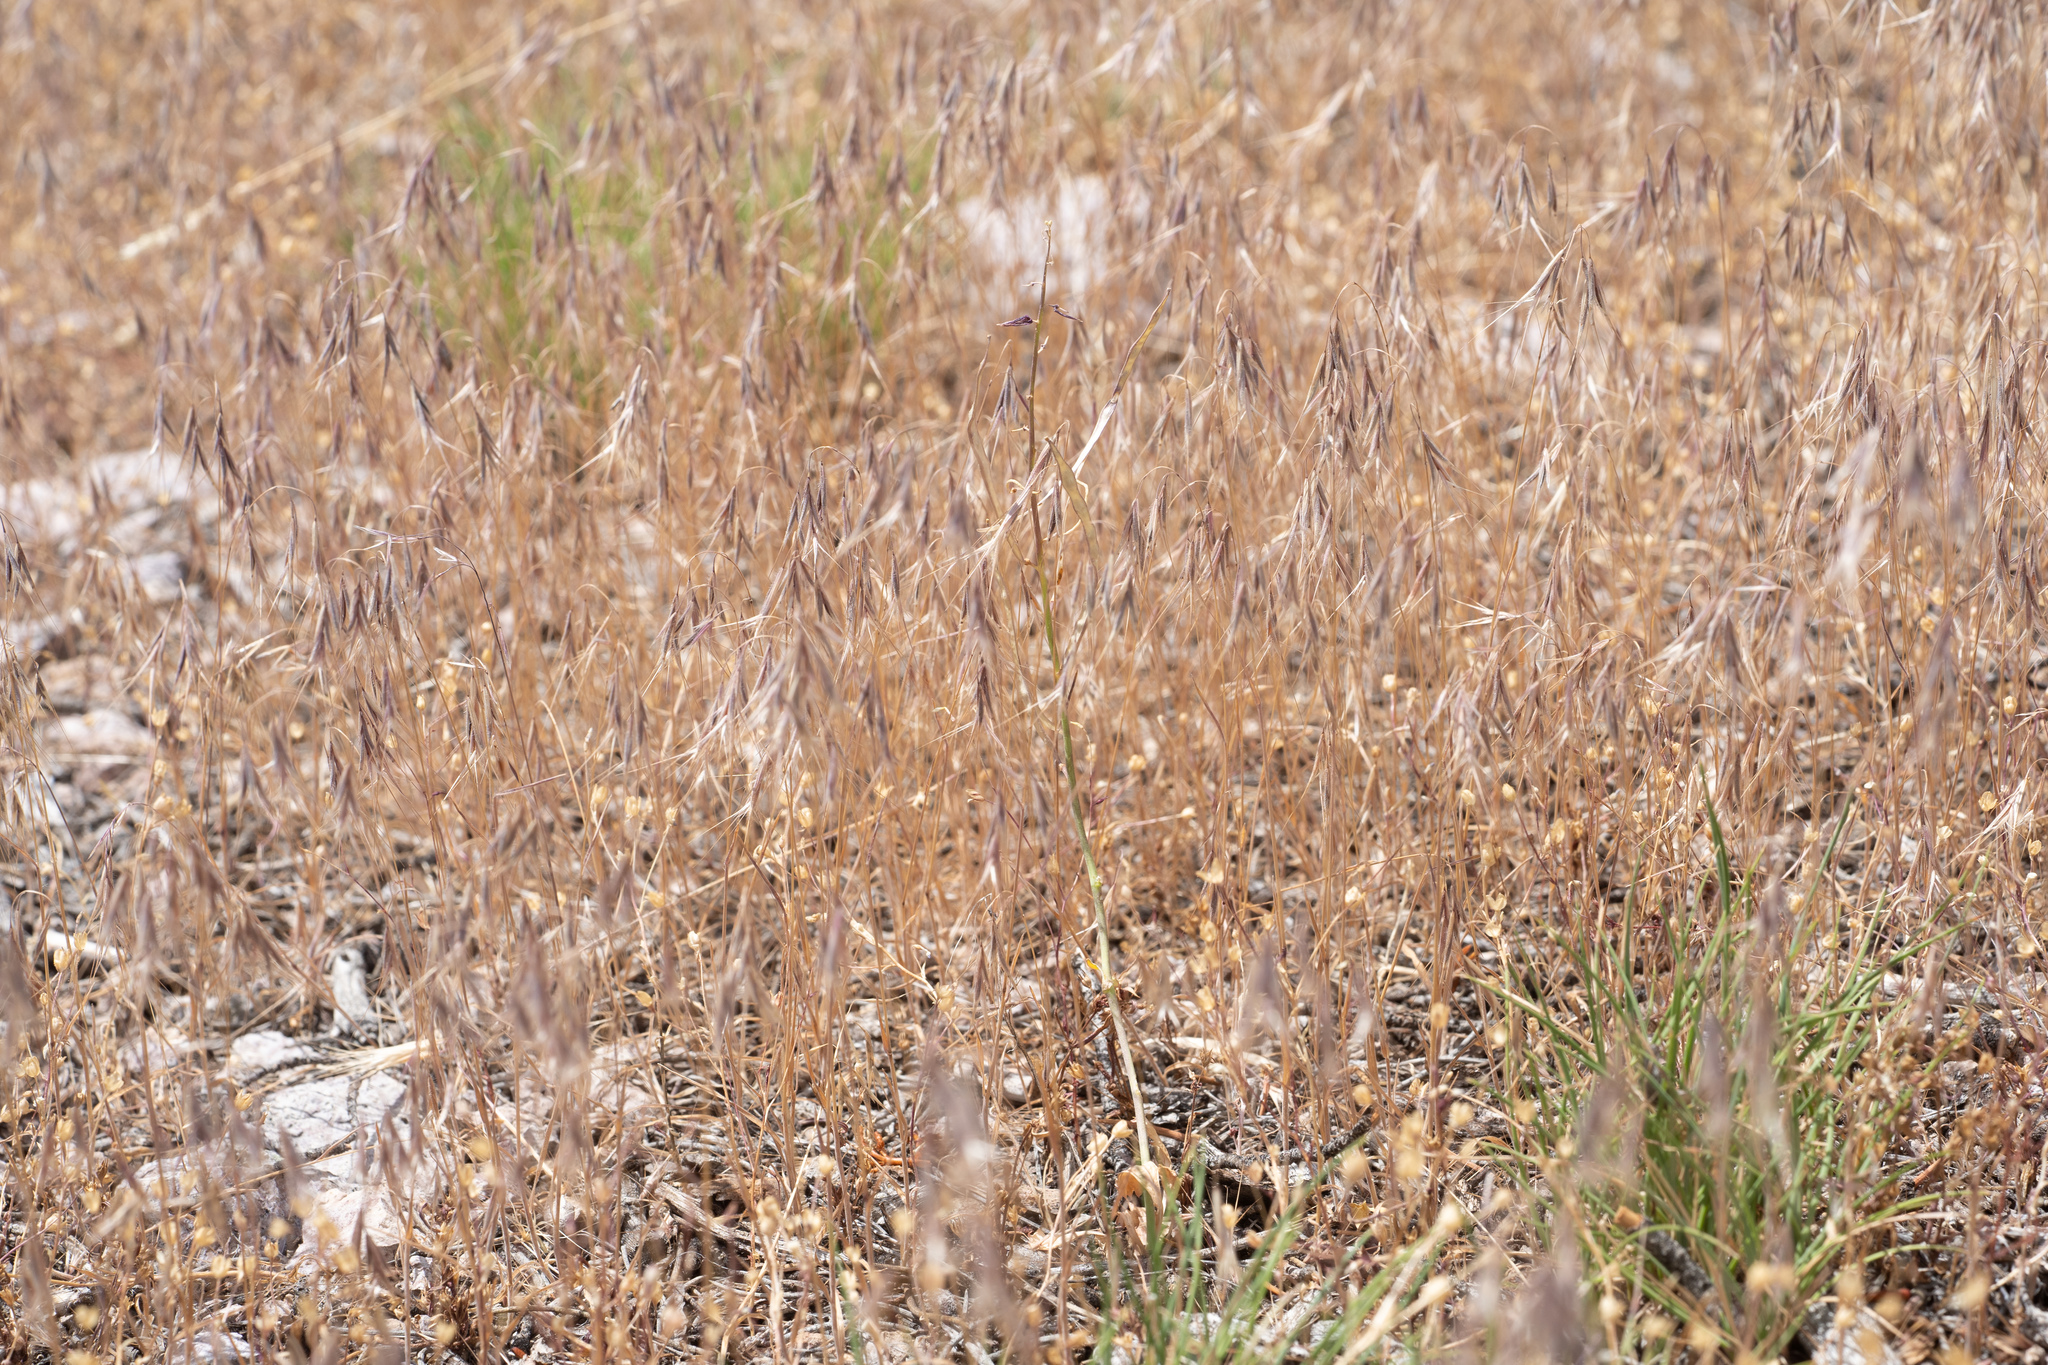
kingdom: Plantae
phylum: Tracheophyta
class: Liliopsida
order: Poales
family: Poaceae
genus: Bromus
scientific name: Bromus tectorum
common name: Cheatgrass
